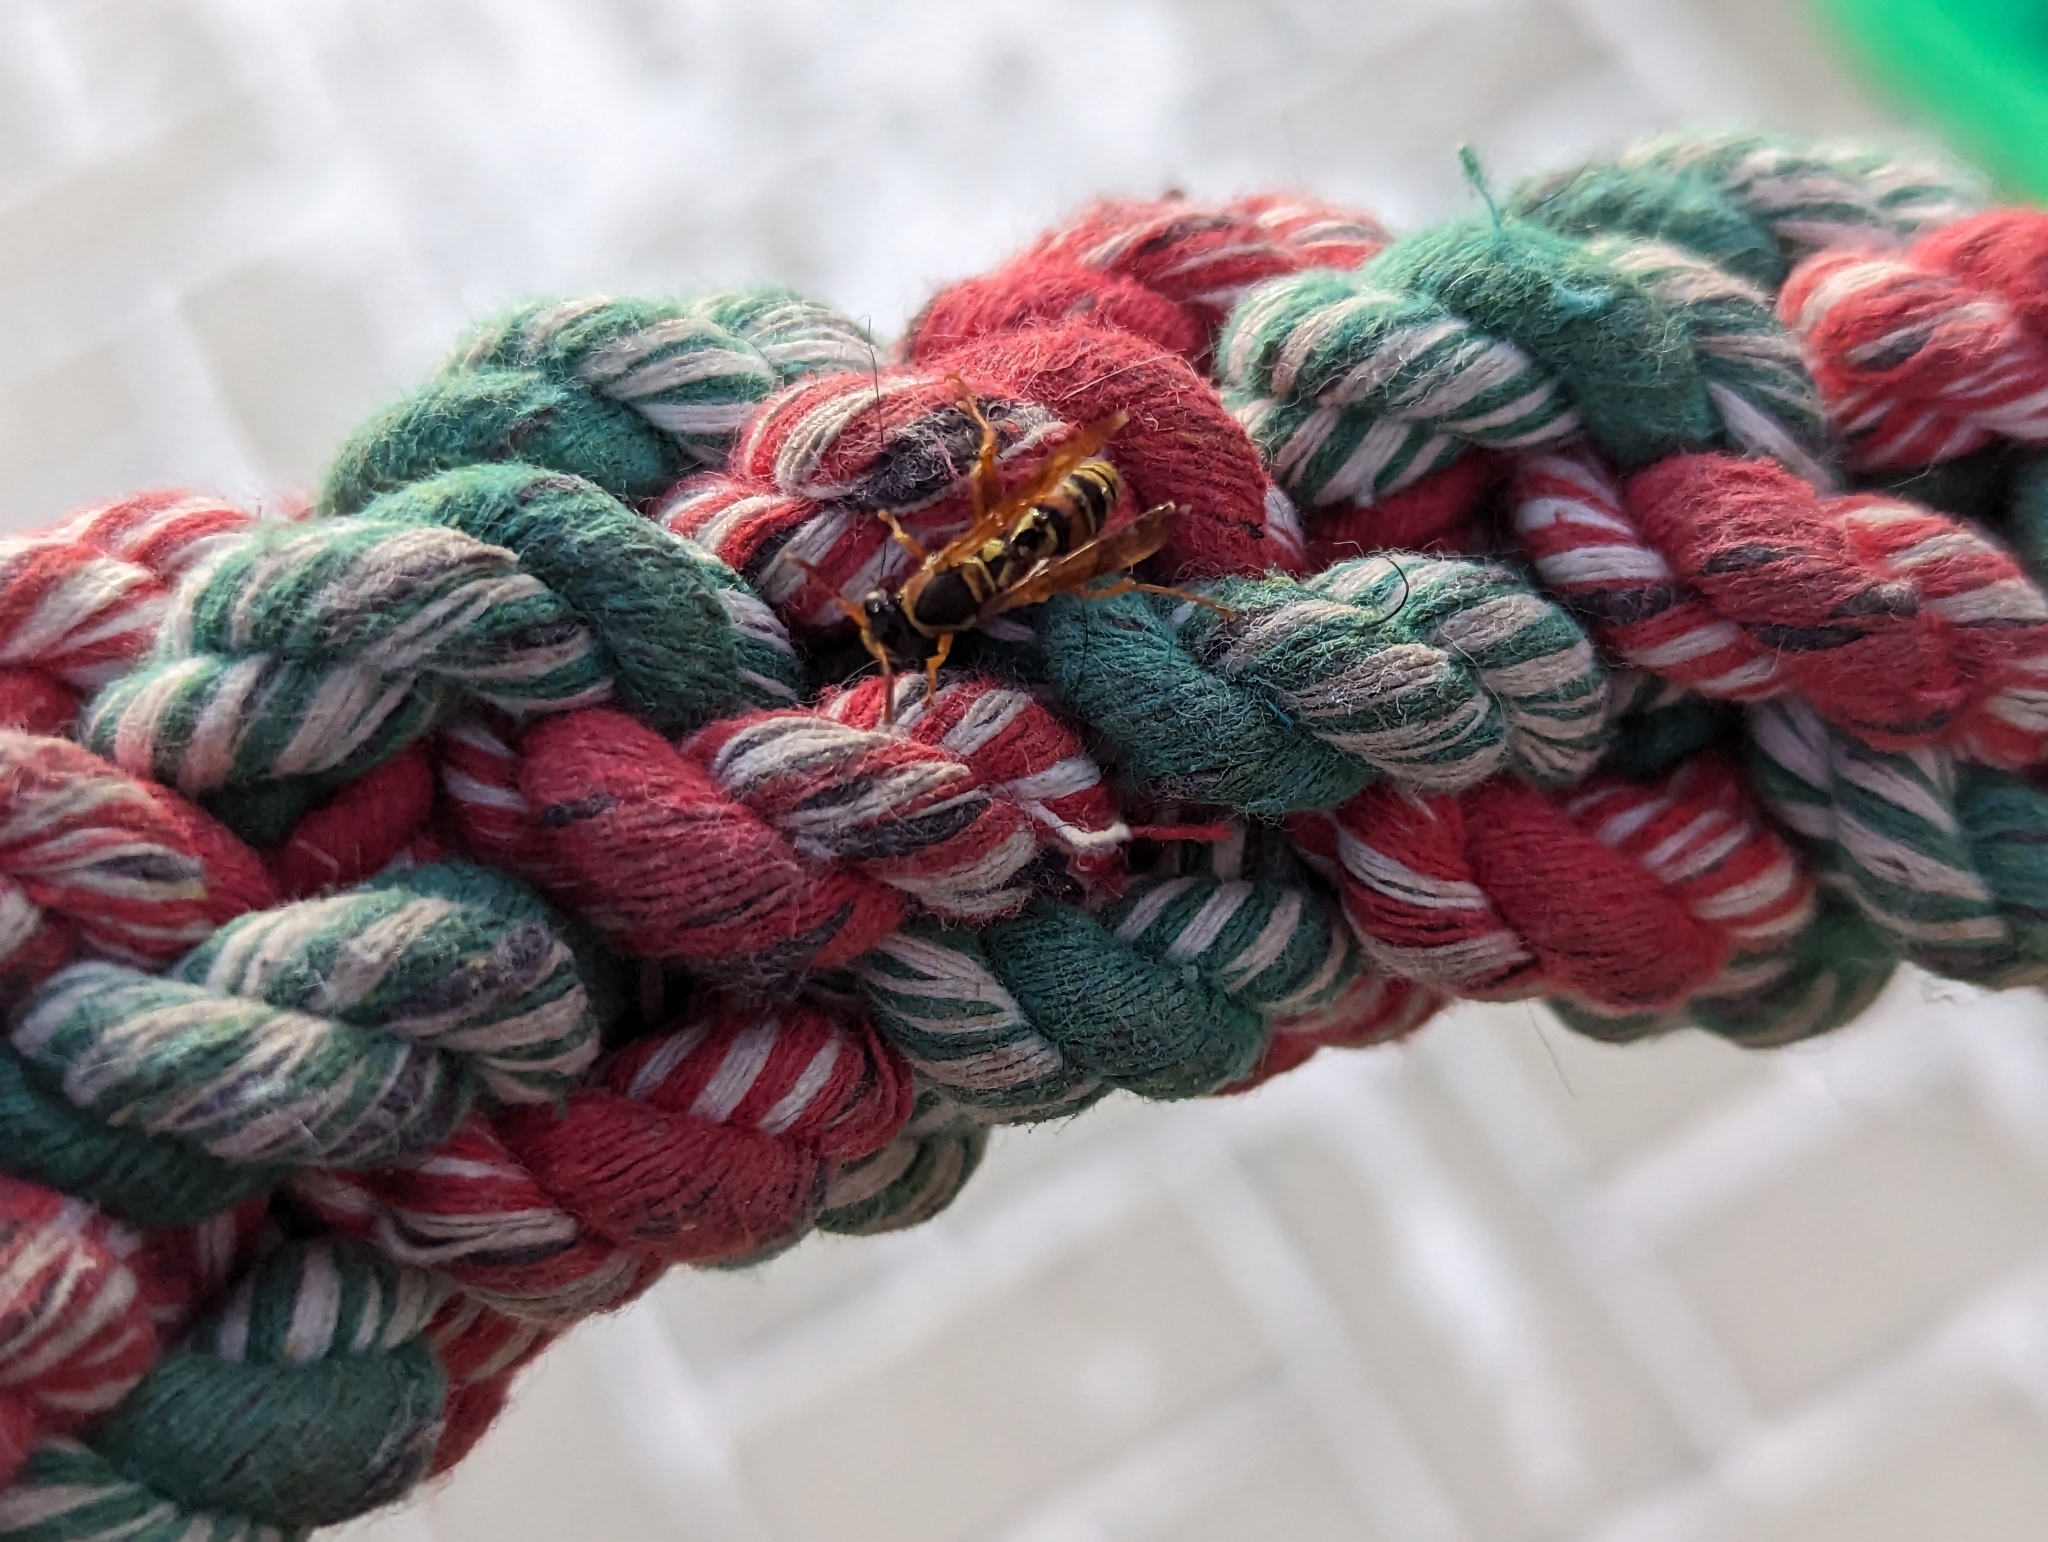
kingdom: Animalia
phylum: Arthropoda
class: Insecta
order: Hymenoptera
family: Eumenidae
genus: Polistes
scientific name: Polistes humilis
